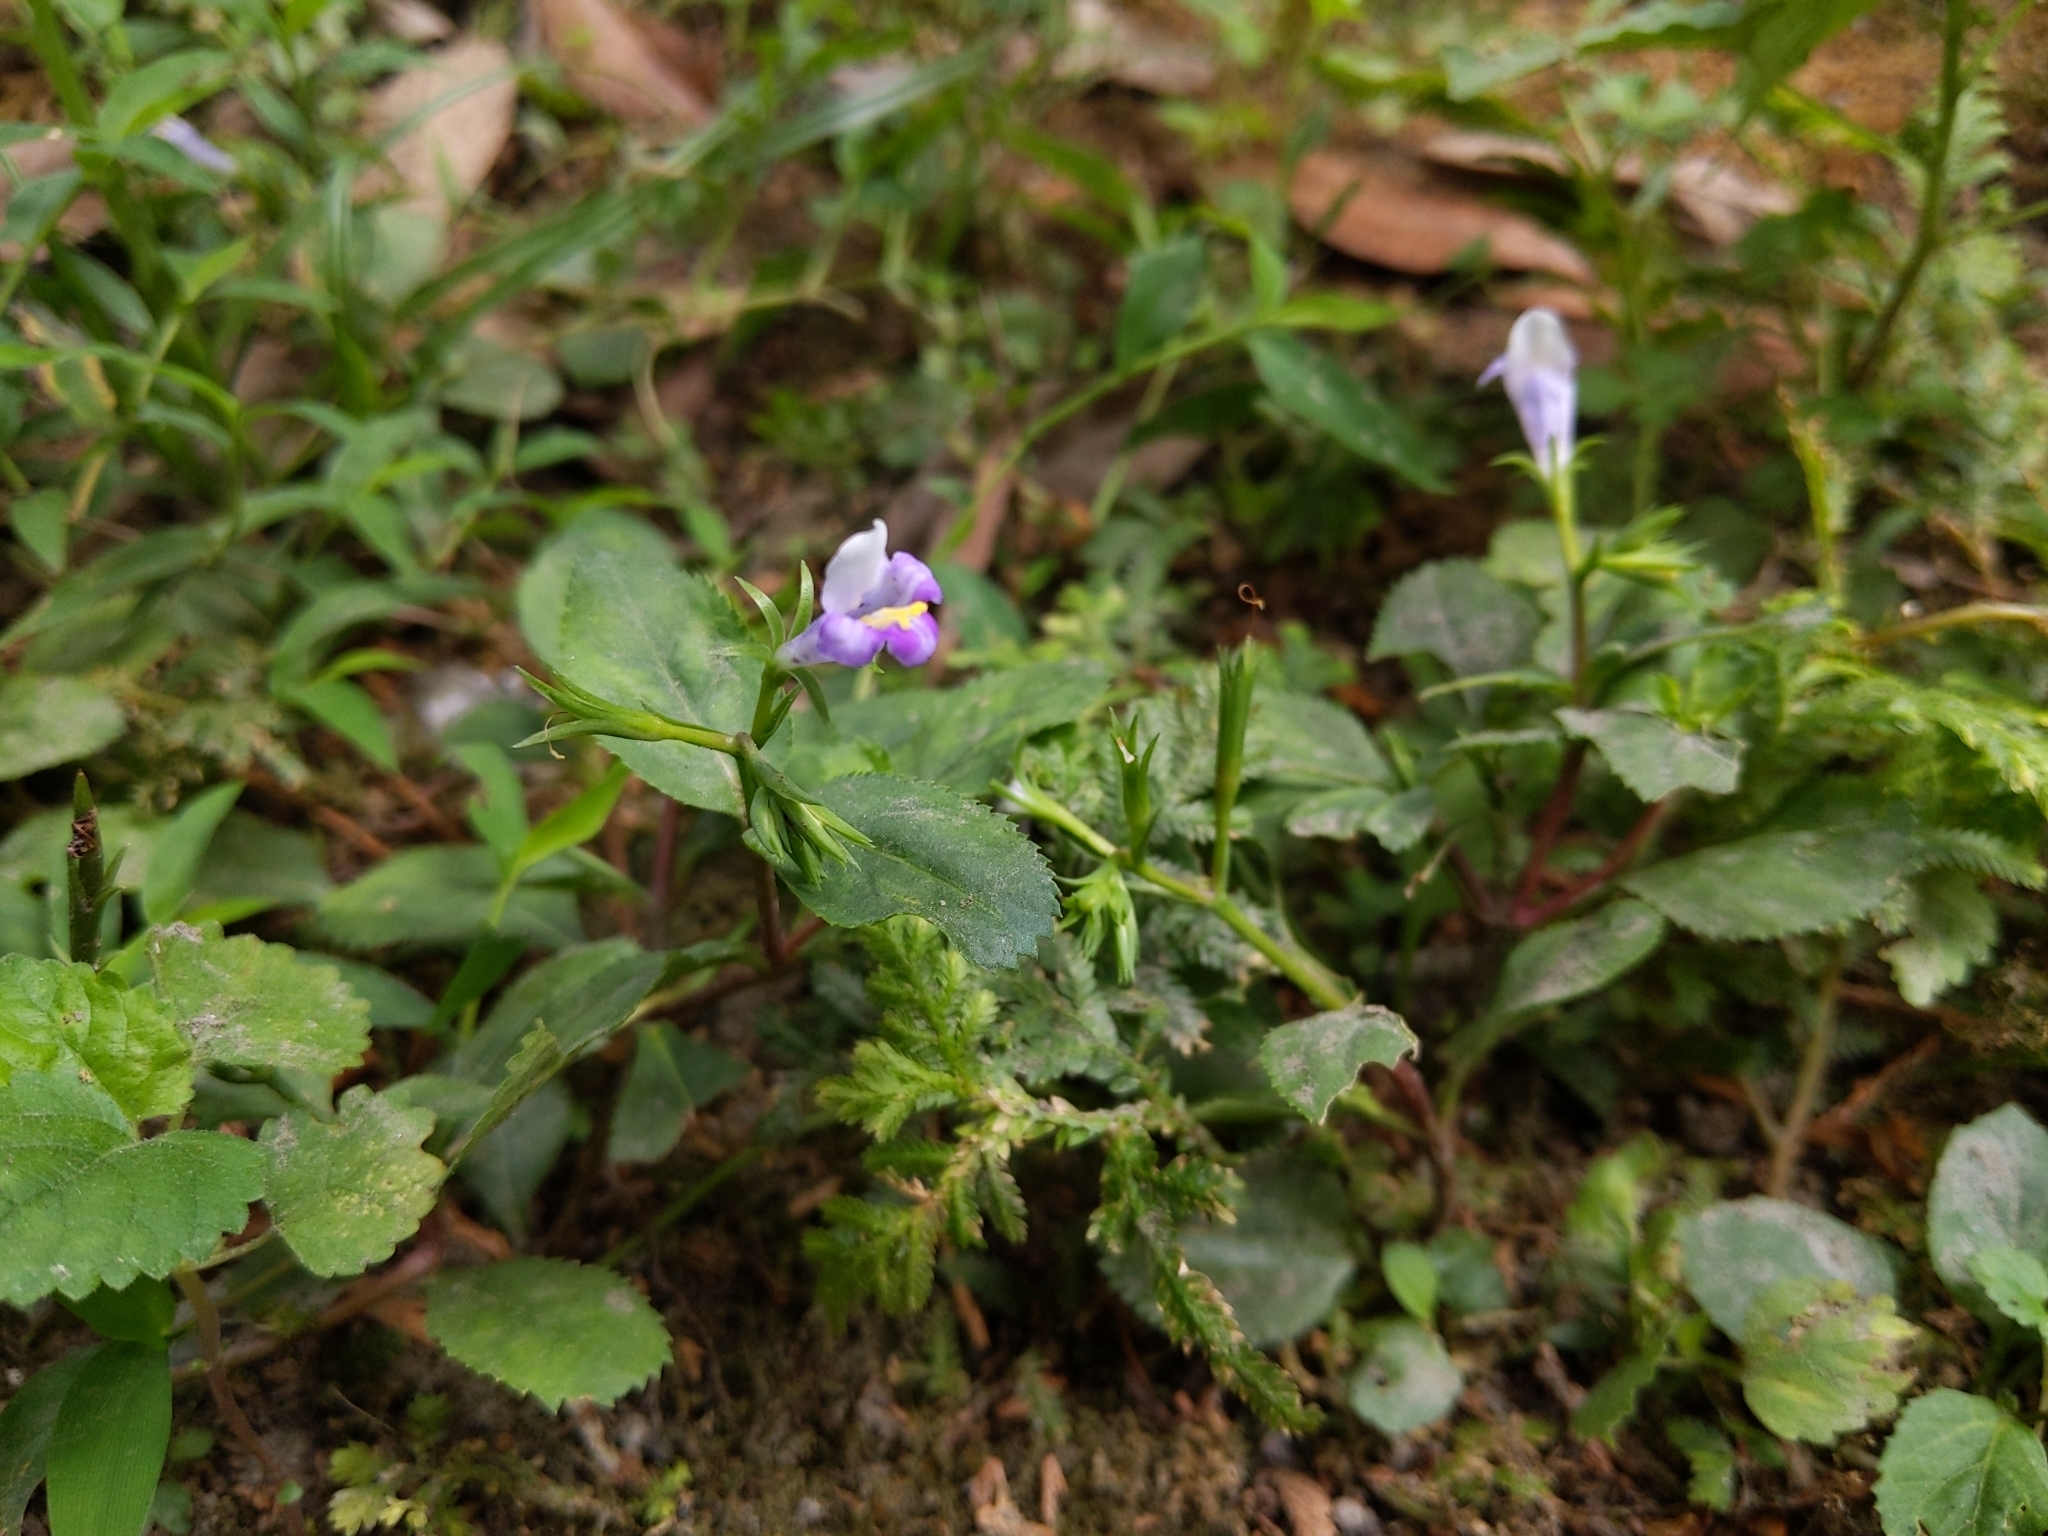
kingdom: Plantae
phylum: Tracheophyta
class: Magnoliopsida
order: Lamiales
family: Linderniaceae
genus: Bonnaya
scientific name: Bonnaya ruelloides
